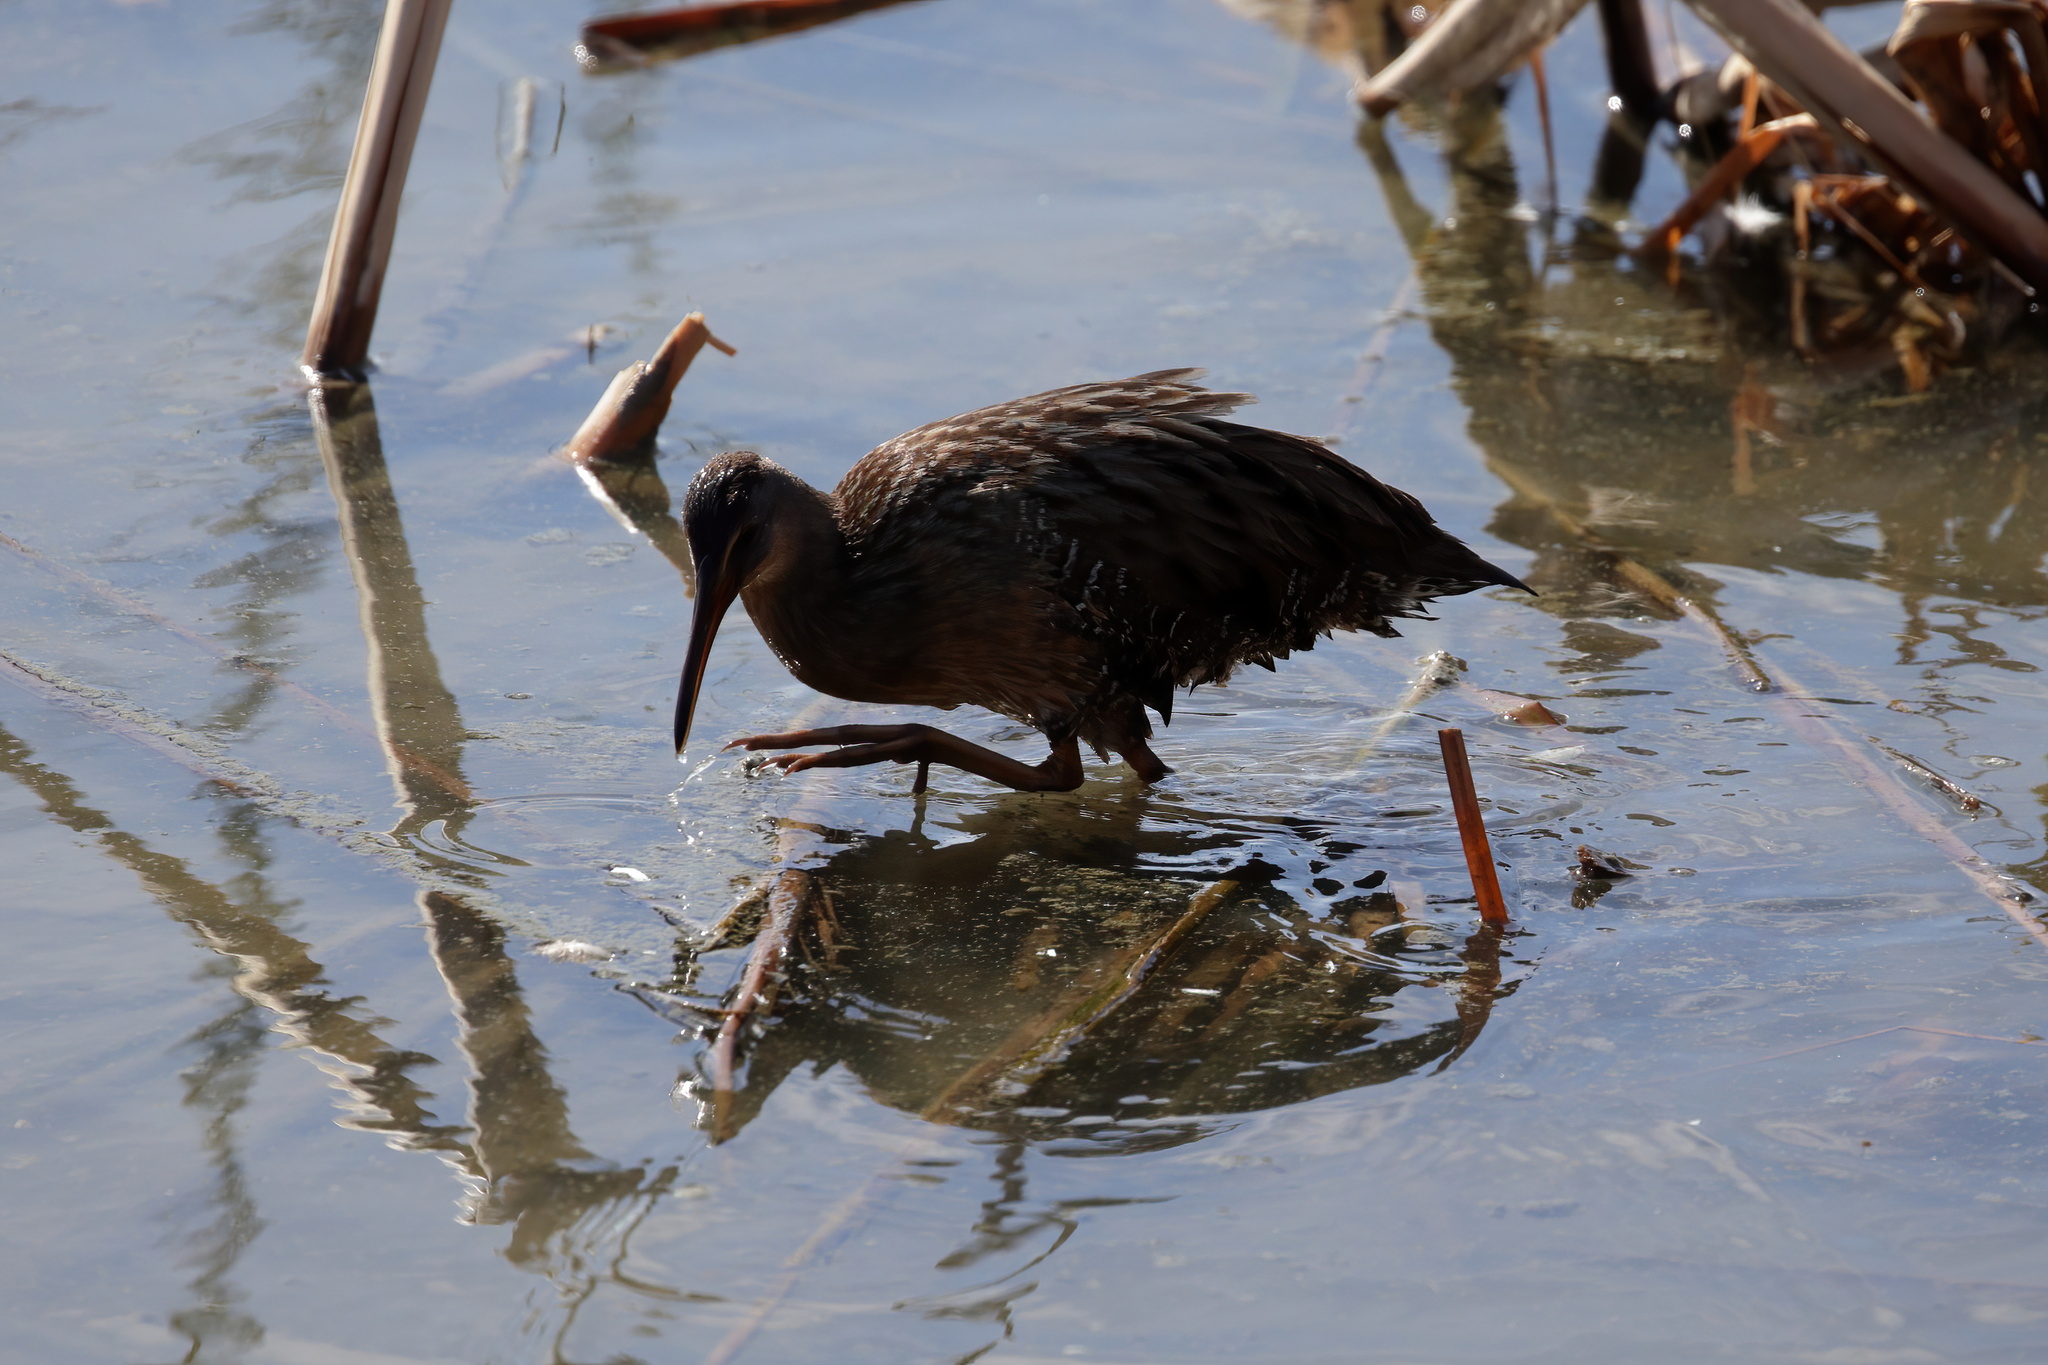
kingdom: Animalia
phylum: Chordata
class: Aves
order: Gruiformes
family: Rallidae
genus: Rallus
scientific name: Rallus crepitans
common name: Clapper rail
